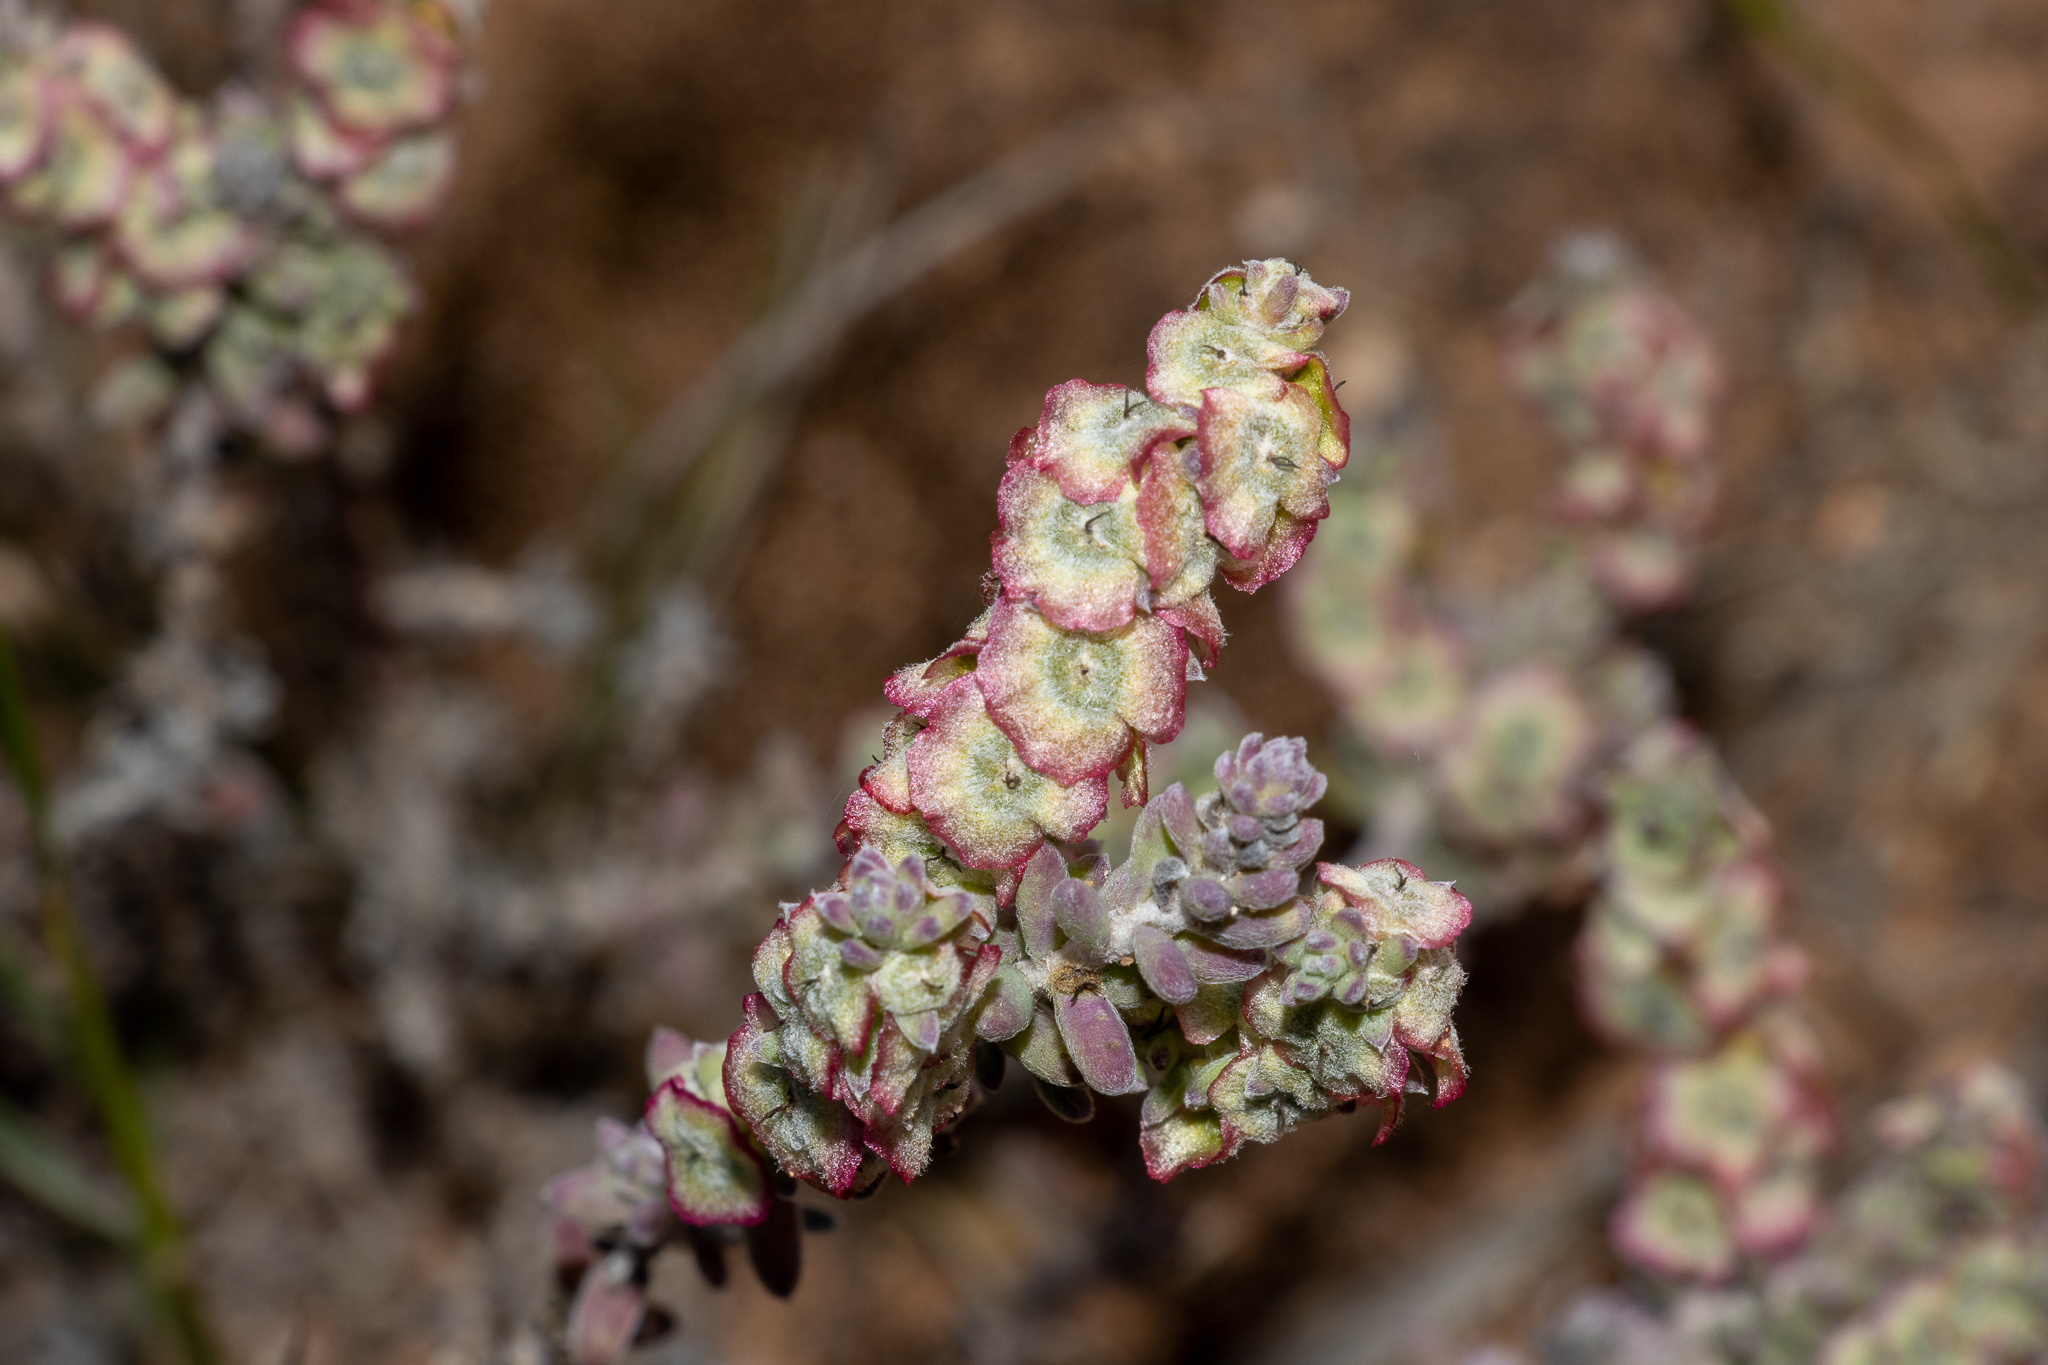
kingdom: Plantae
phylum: Tracheophyta
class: Magnoliopsida
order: Caryophyllales
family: Amaranthaceae
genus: Maireana
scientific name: Maireana trichoptera
